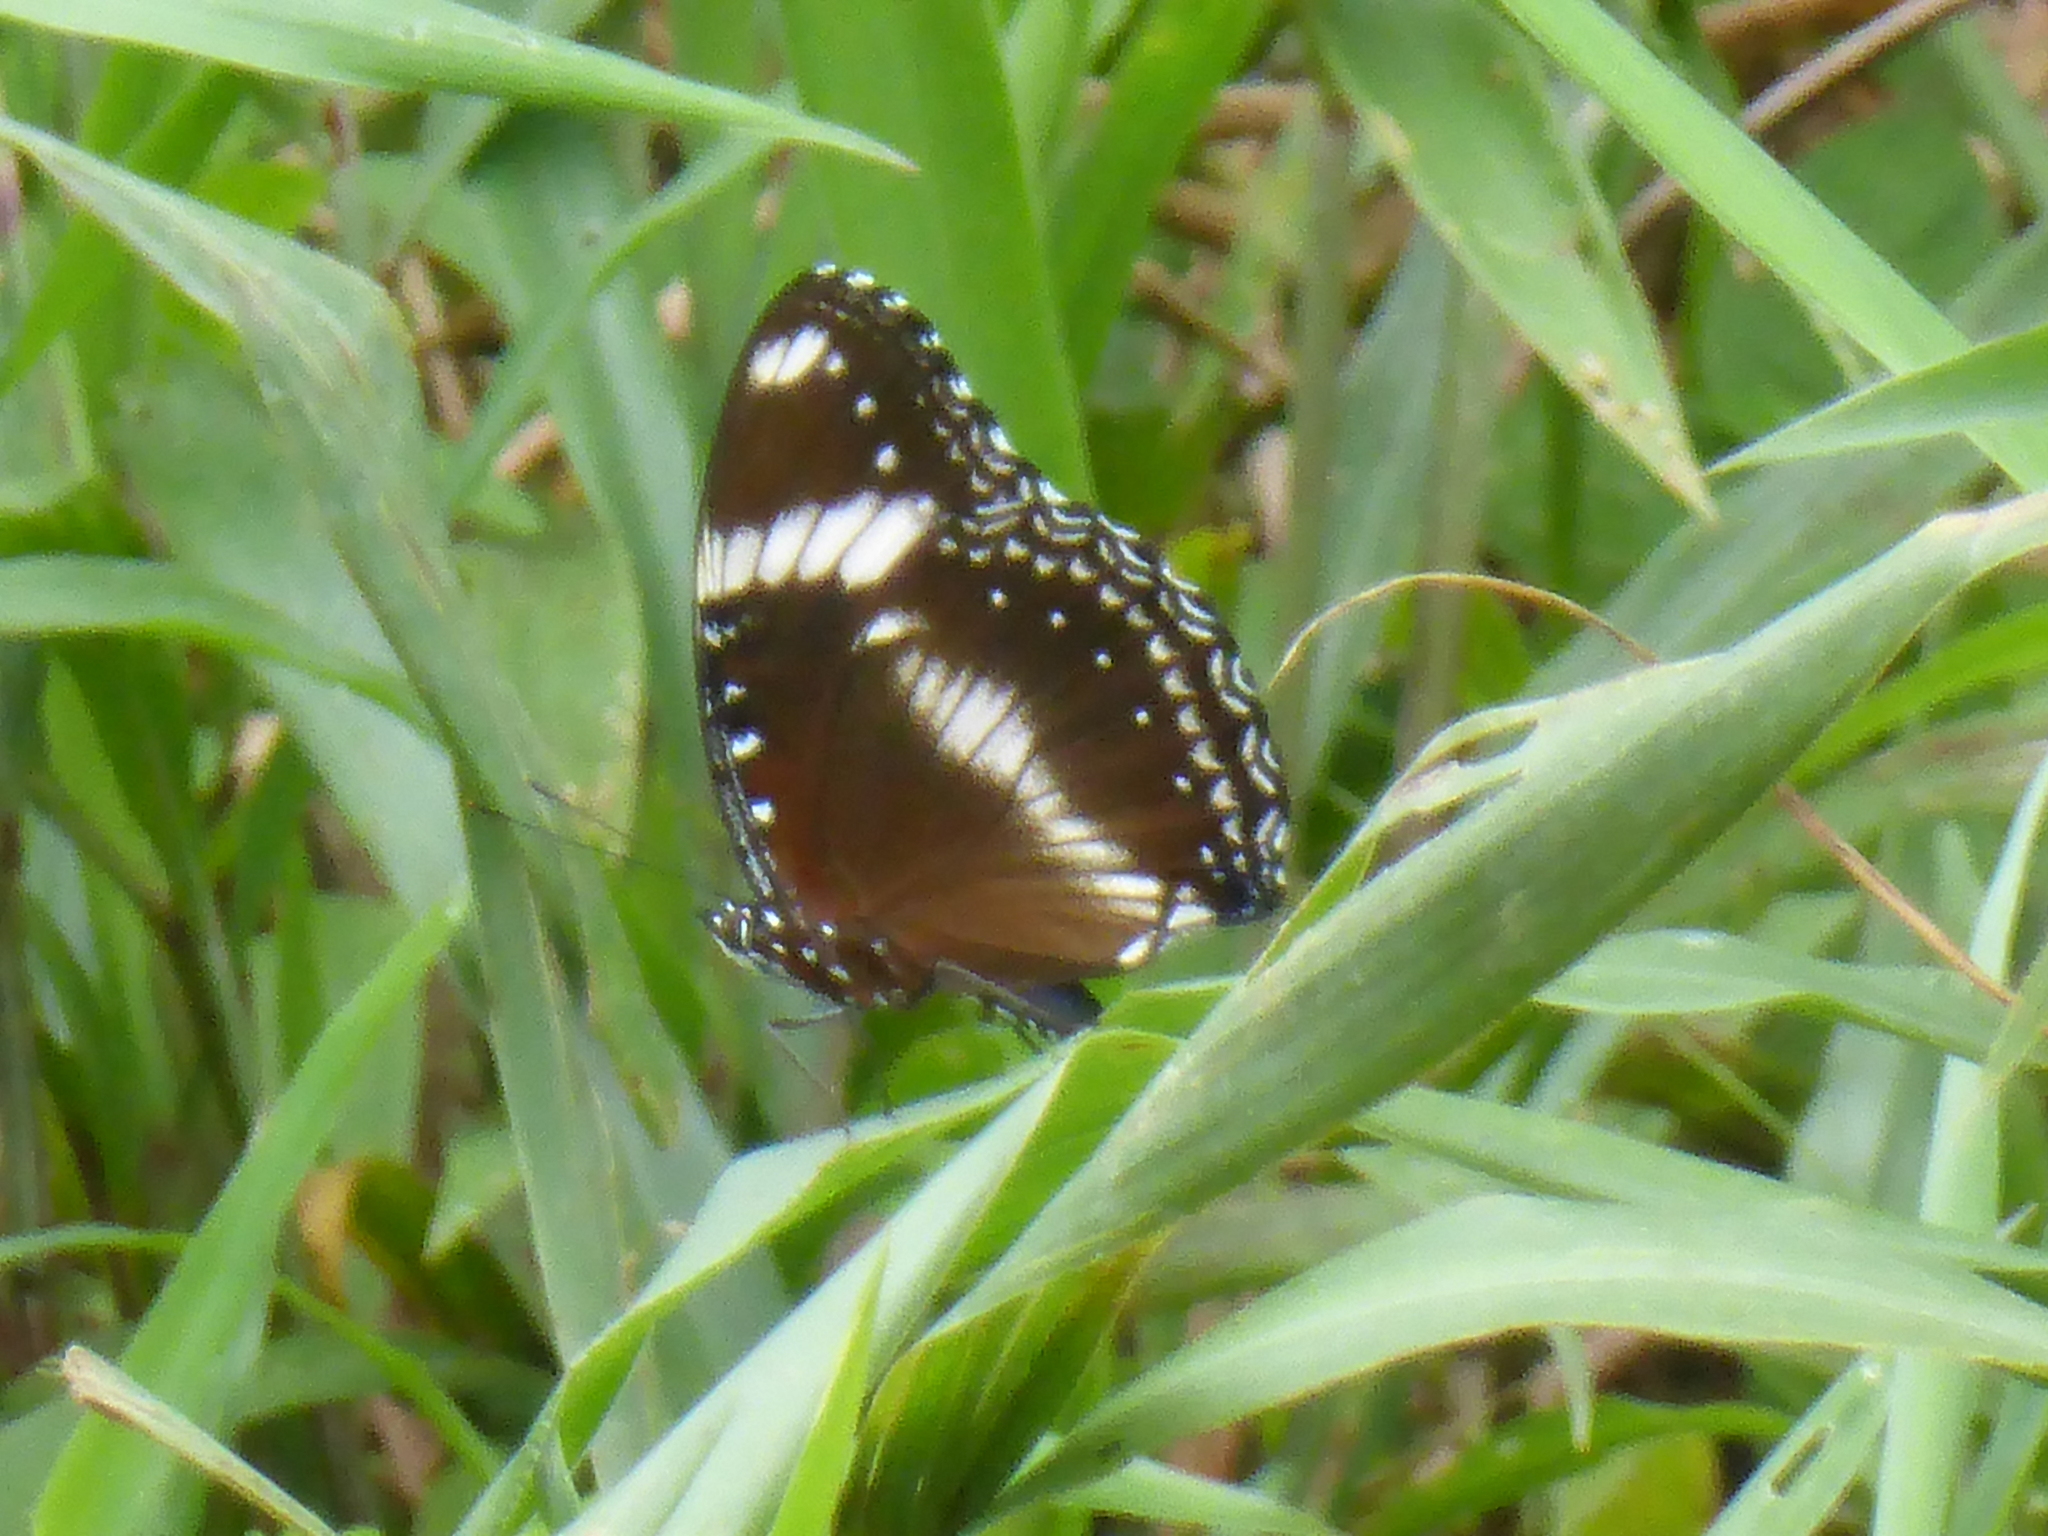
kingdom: Animalia
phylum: Arthropoda
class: Insecta
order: Lepidoptera
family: Nymphalidae
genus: Hypolimnas
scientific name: Hypolimnas bolina
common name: Great eggfly
